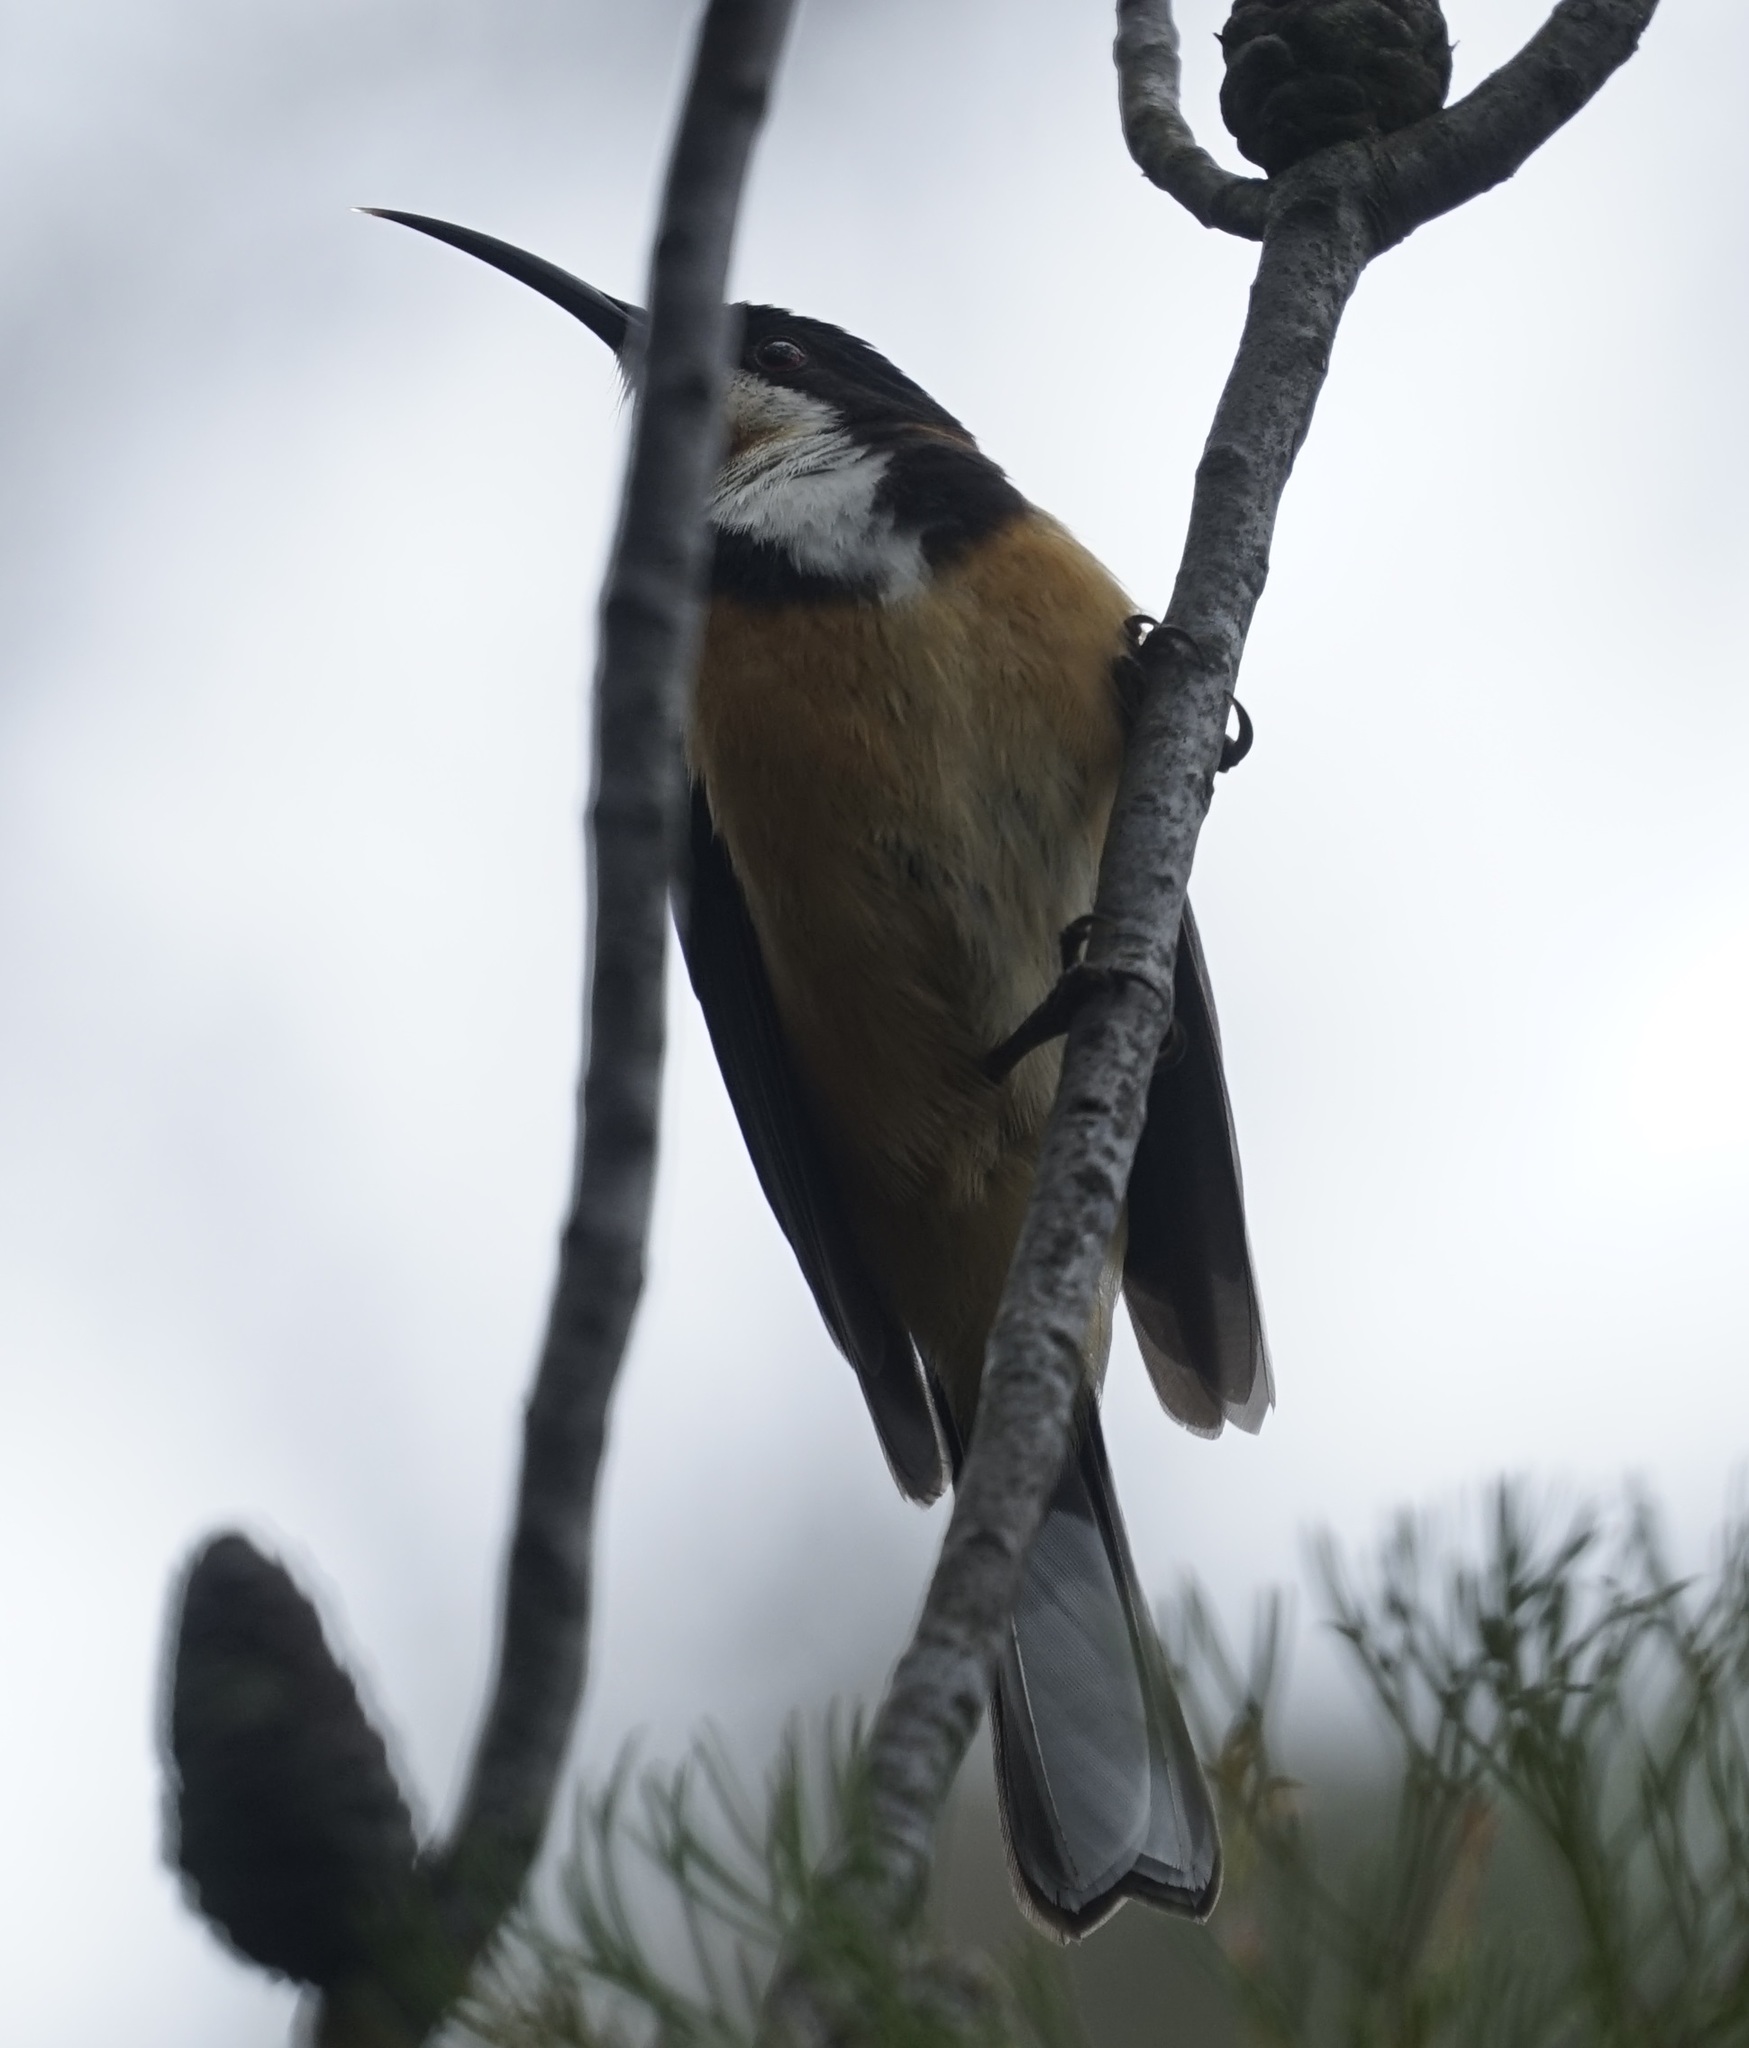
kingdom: Animalia
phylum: Chordata
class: Aves
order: Passeriformes
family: Meliphagidae
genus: Acanthorhynchus
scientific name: Acanthorhynchus tenuirostris
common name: Eastern spinebill
